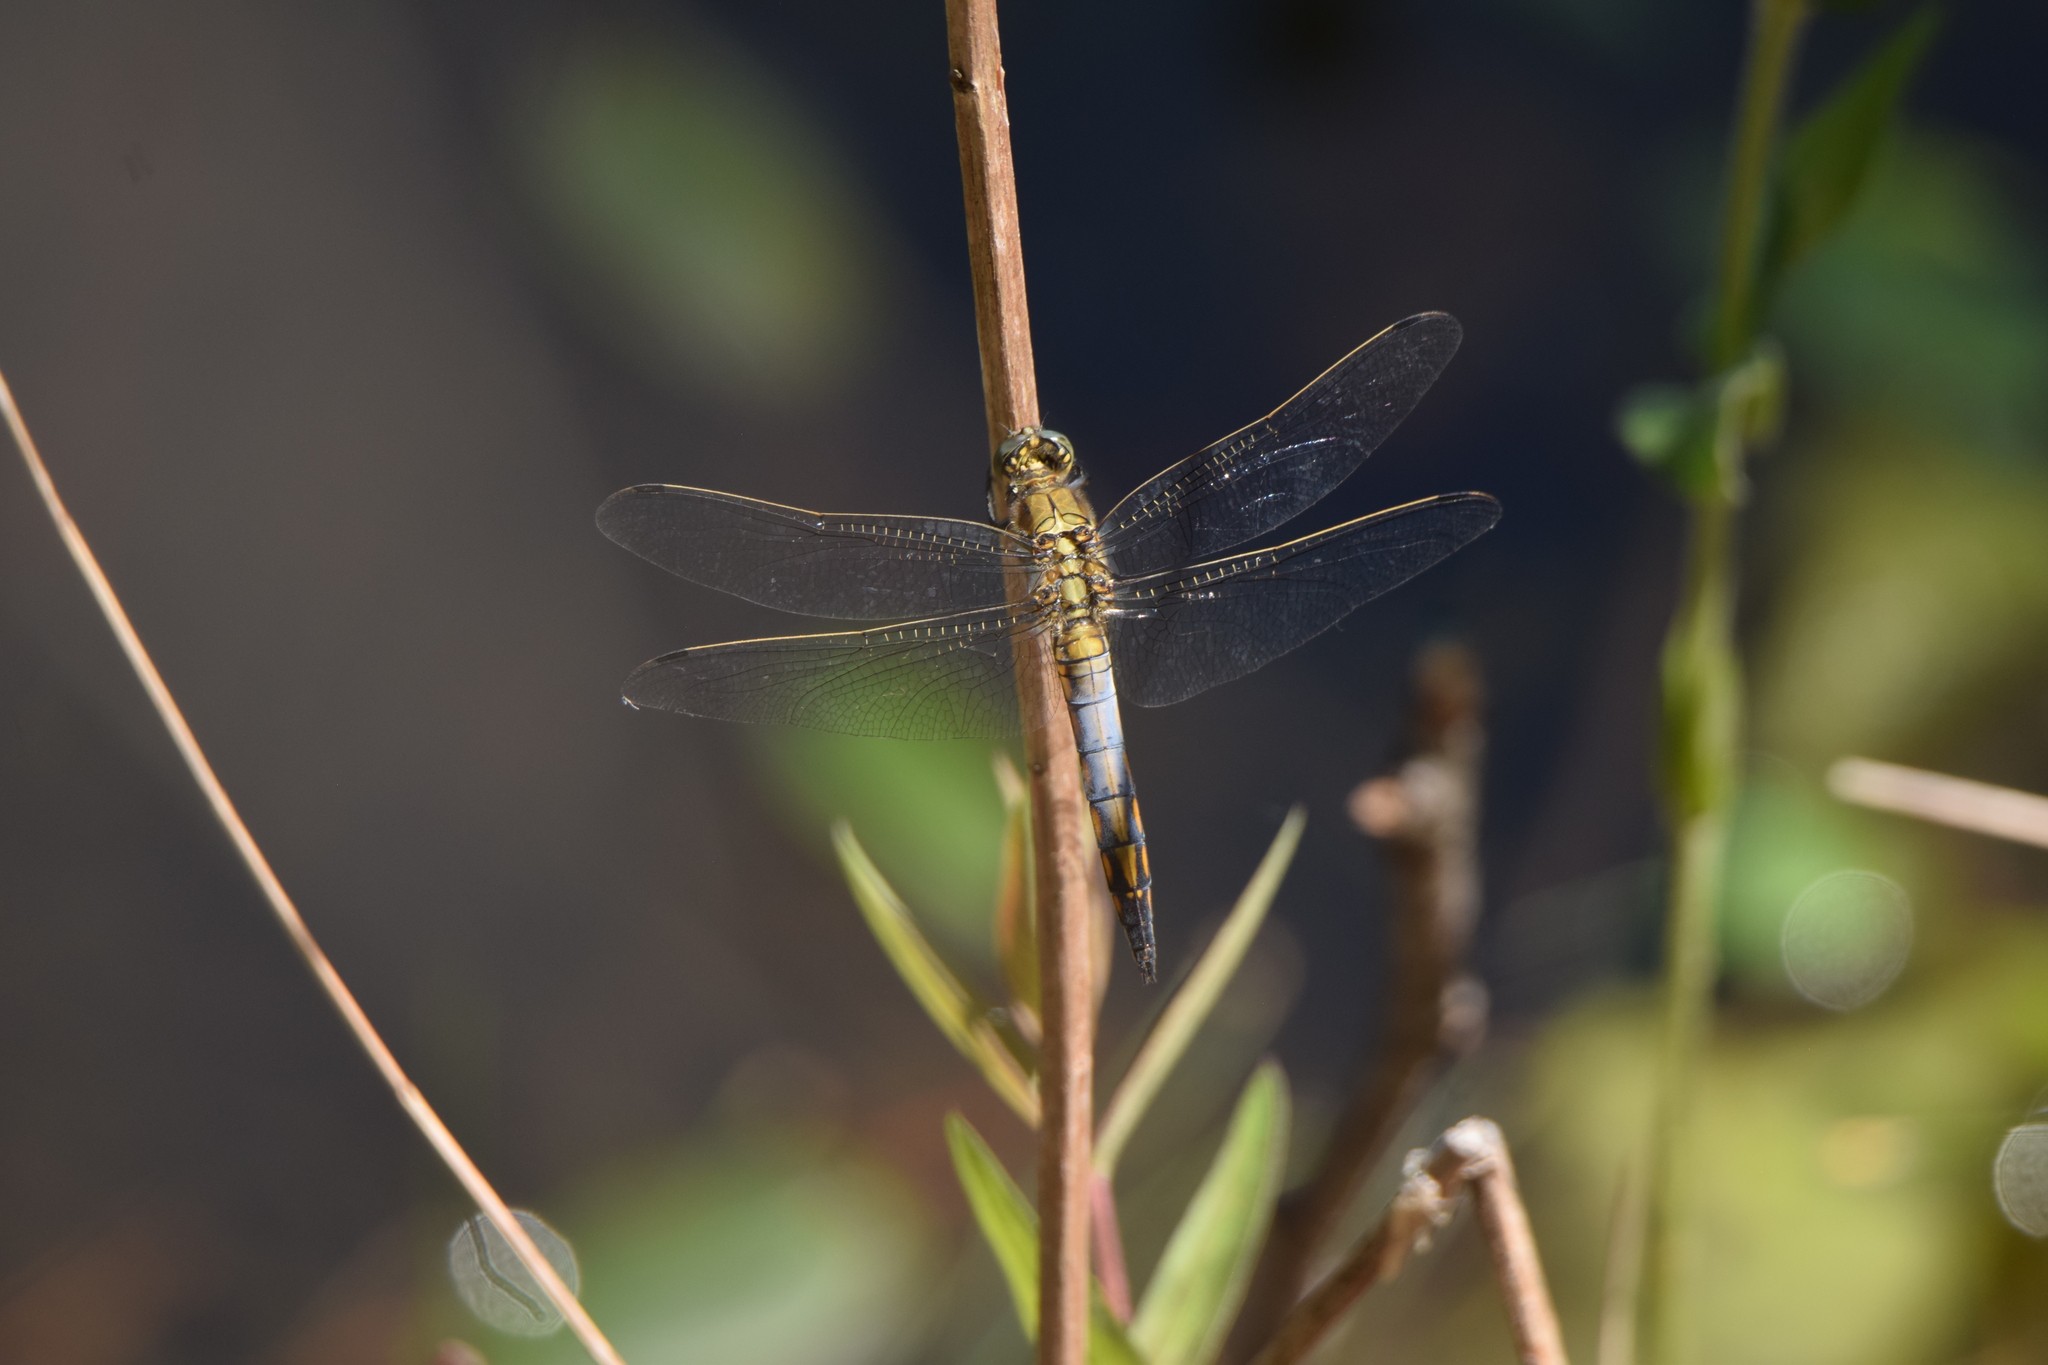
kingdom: Animalia
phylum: Arthropoda
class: Insecta
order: Odonata
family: Libellulidae
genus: Orthetrum
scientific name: Orthetrum cancellatum
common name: Black-tailed skimmer
